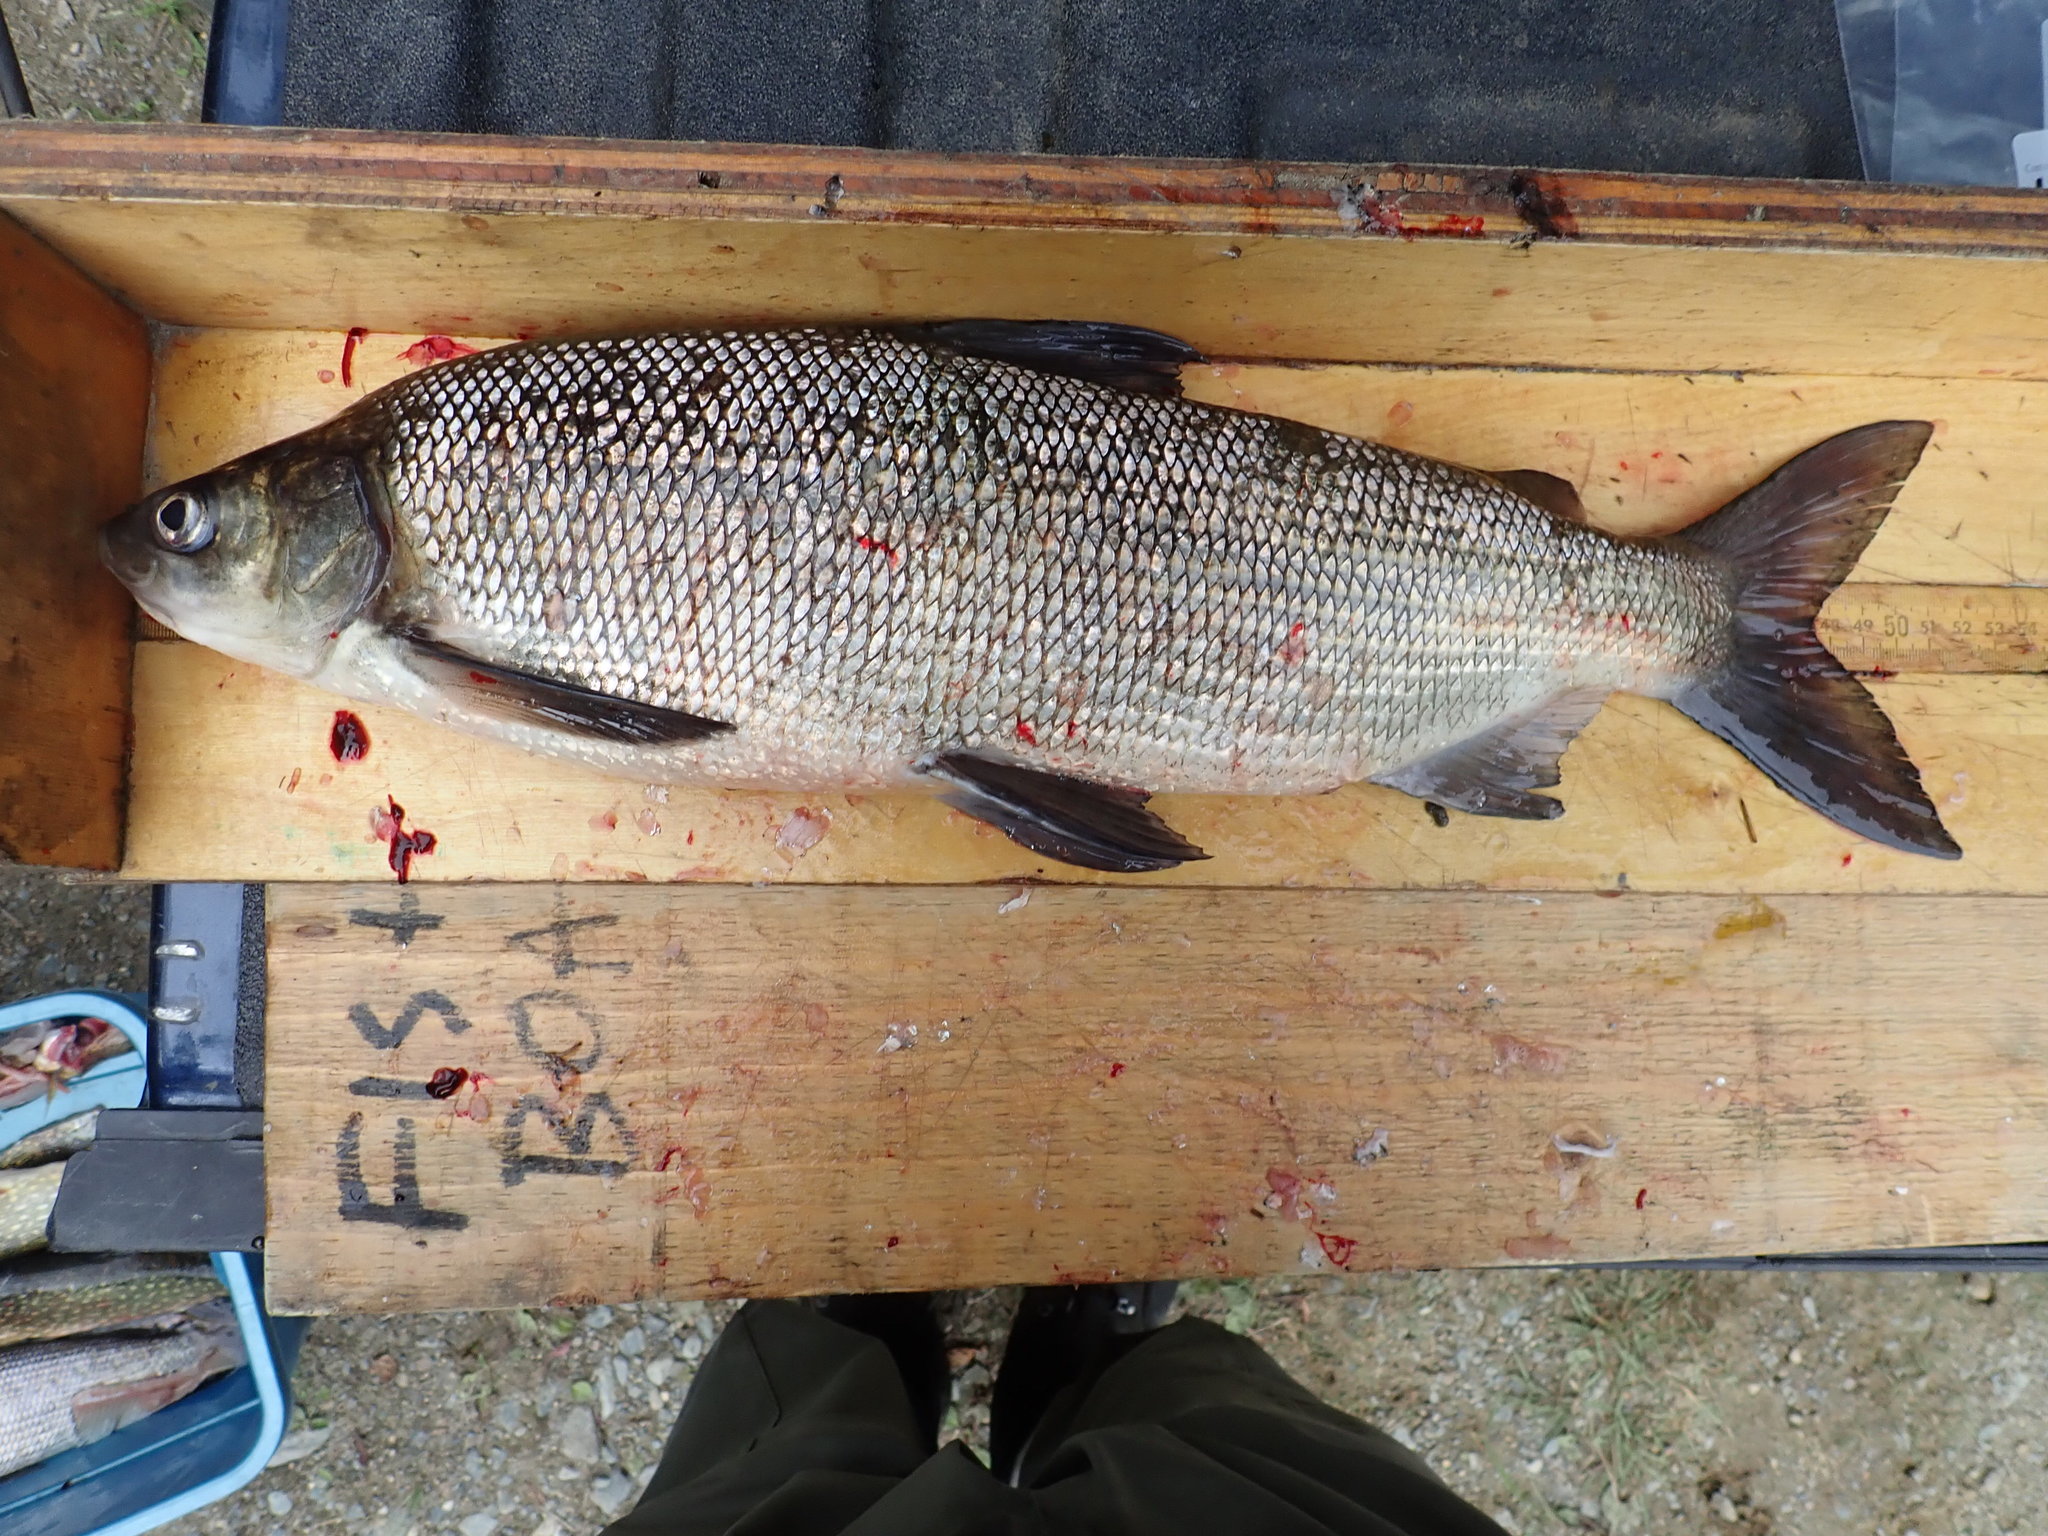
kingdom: Animalia
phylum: Chordata
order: Salmoniformes
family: Salmonidae
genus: Coregonus
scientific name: Coregonus clupeaformis
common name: Lake whitefish
